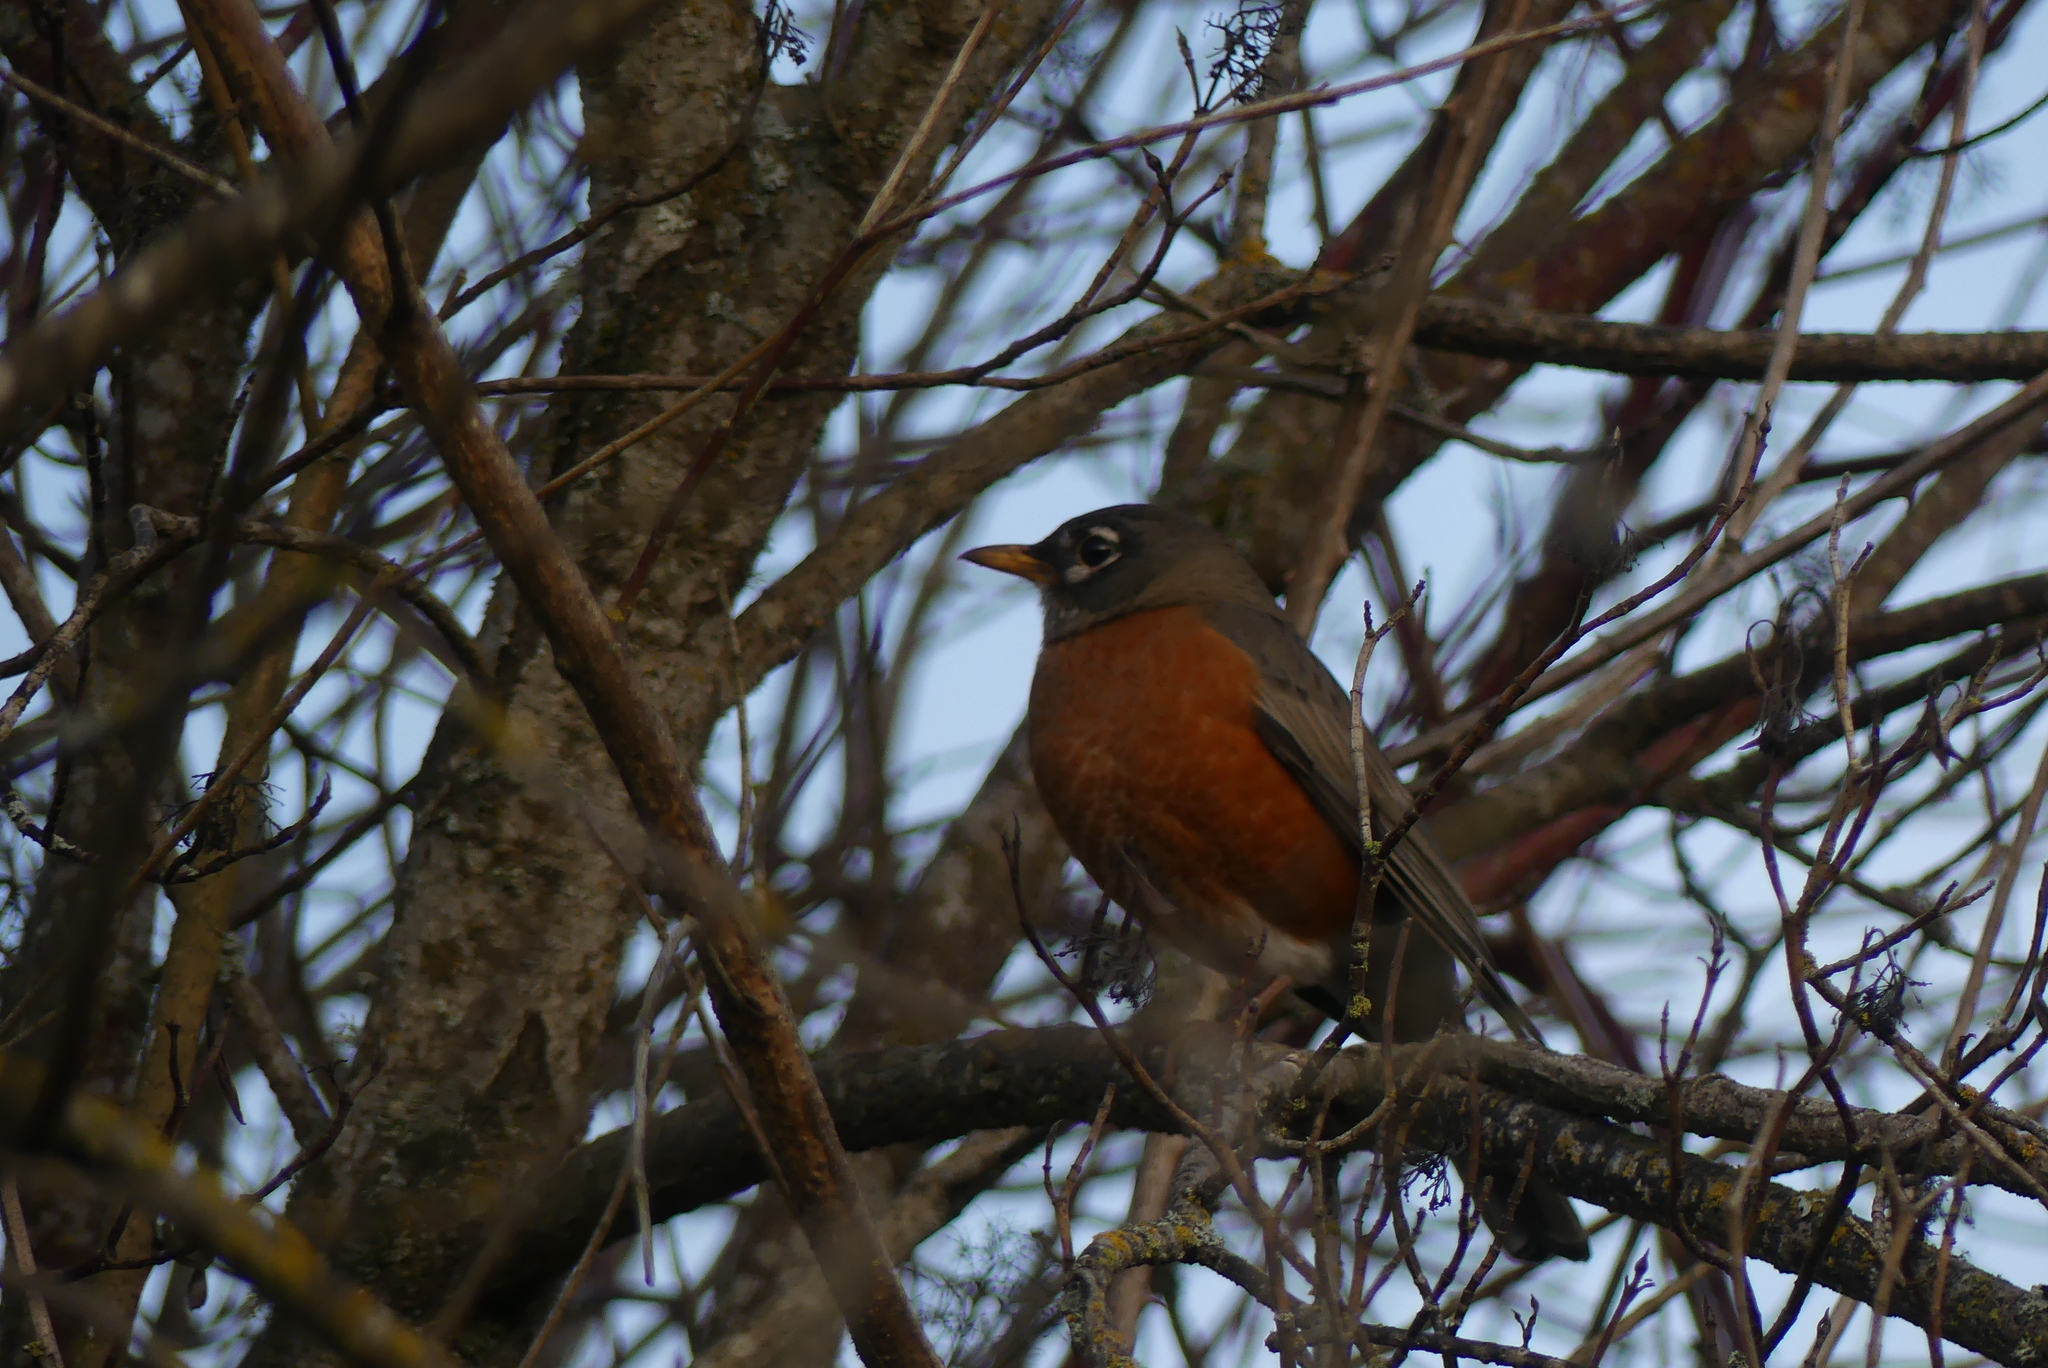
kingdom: Animalia
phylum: Chordata
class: Aves
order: Passeriformes
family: Turdidae
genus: Turdus
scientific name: Turdus migratorius
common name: American robin
